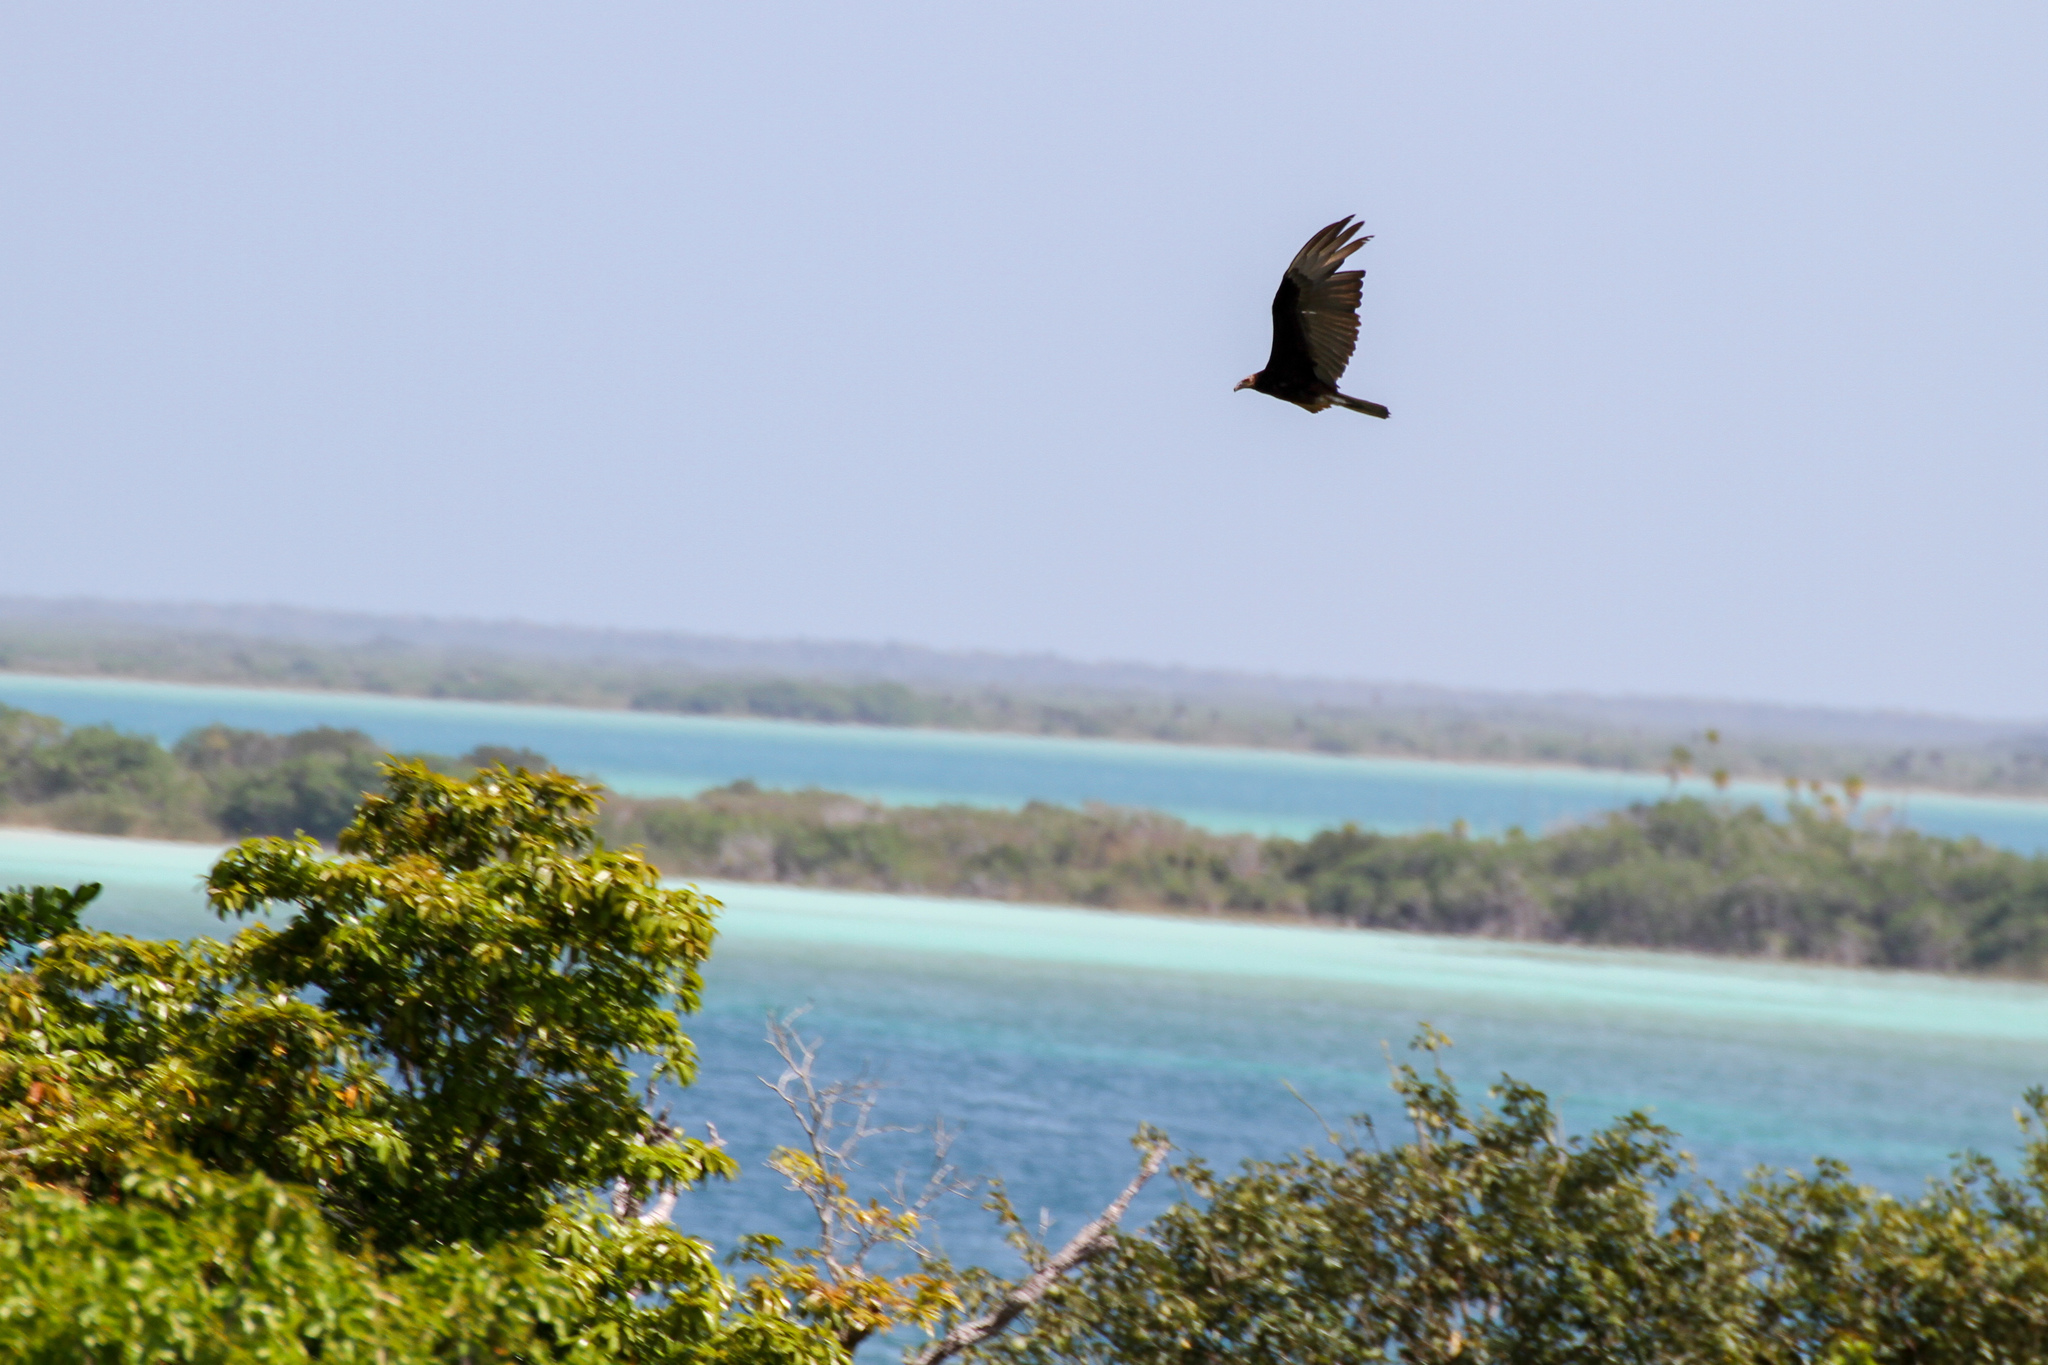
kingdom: Animalia
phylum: Chordata
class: Aves
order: Accipitriformes
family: Cathartidae
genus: Cathartes
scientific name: Cathartes burrovianus
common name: Lesser yellow-headed vulture
